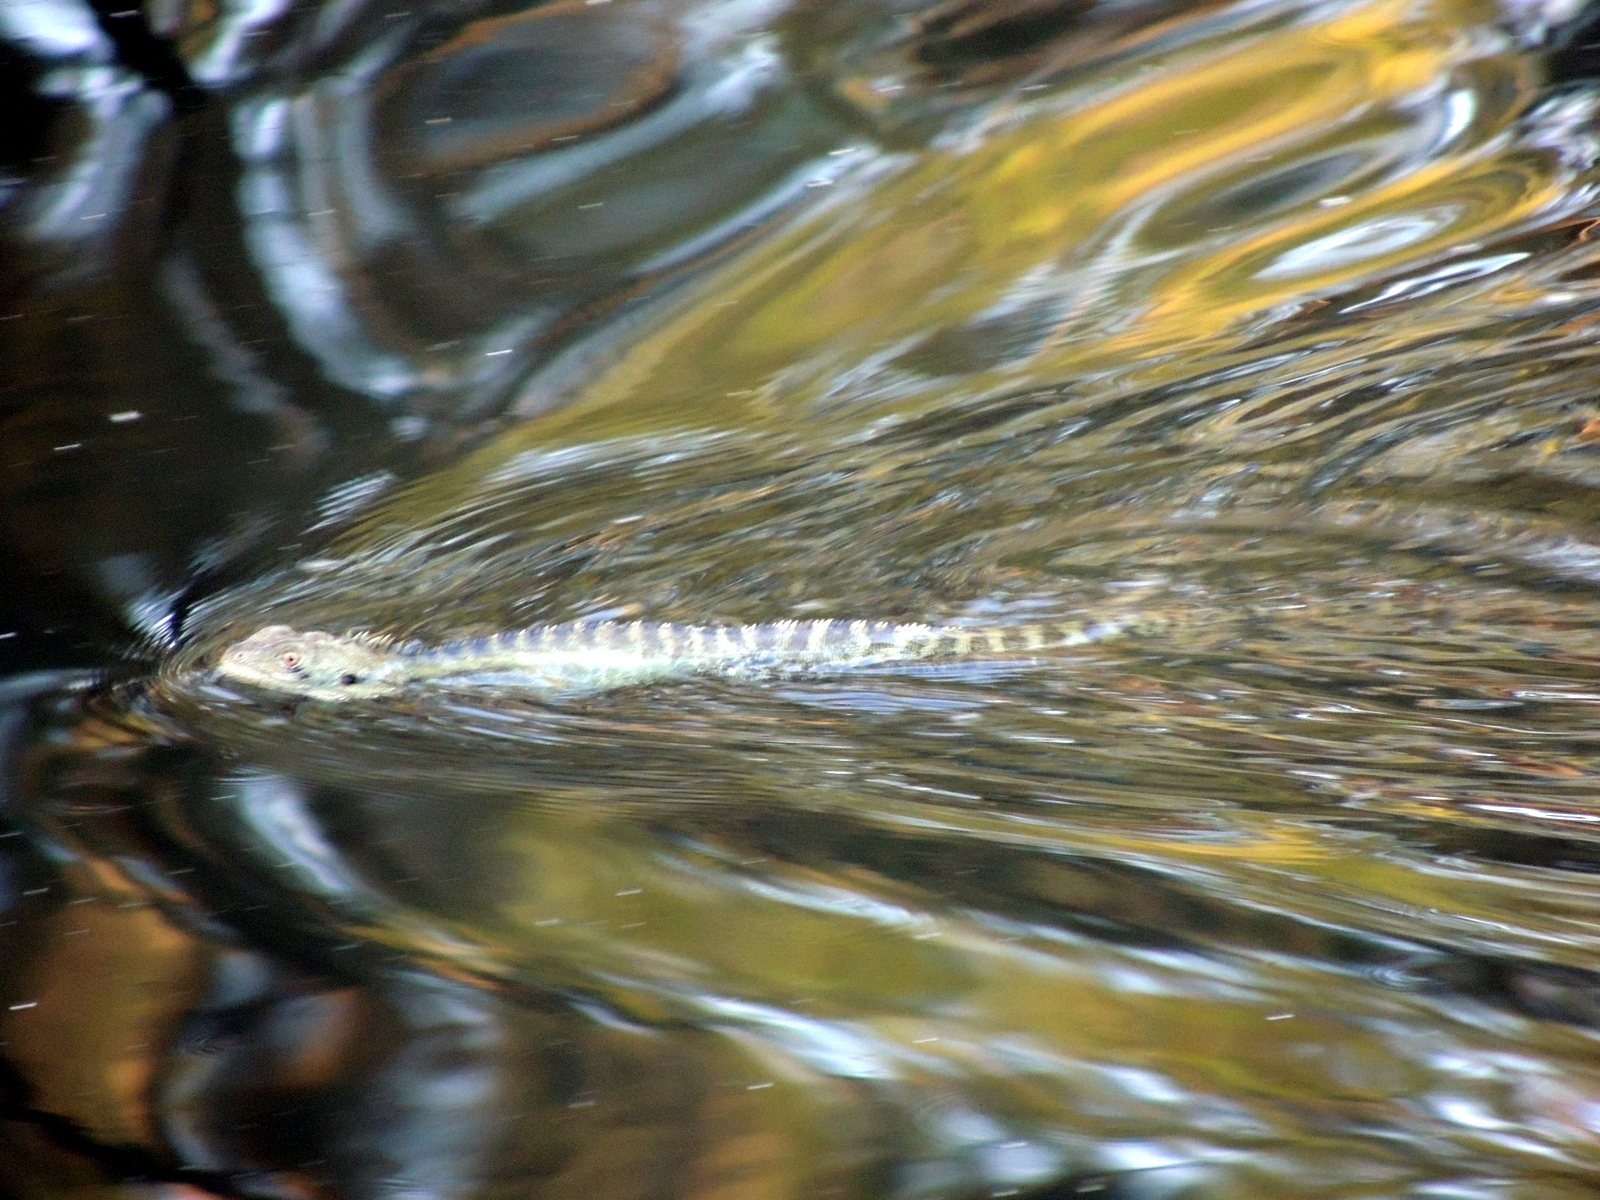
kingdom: Animalia
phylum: Chordata
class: Squamata
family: Agamidae
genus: Intellagama
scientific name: Intellagama lesueurii
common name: Eastern water dragon
